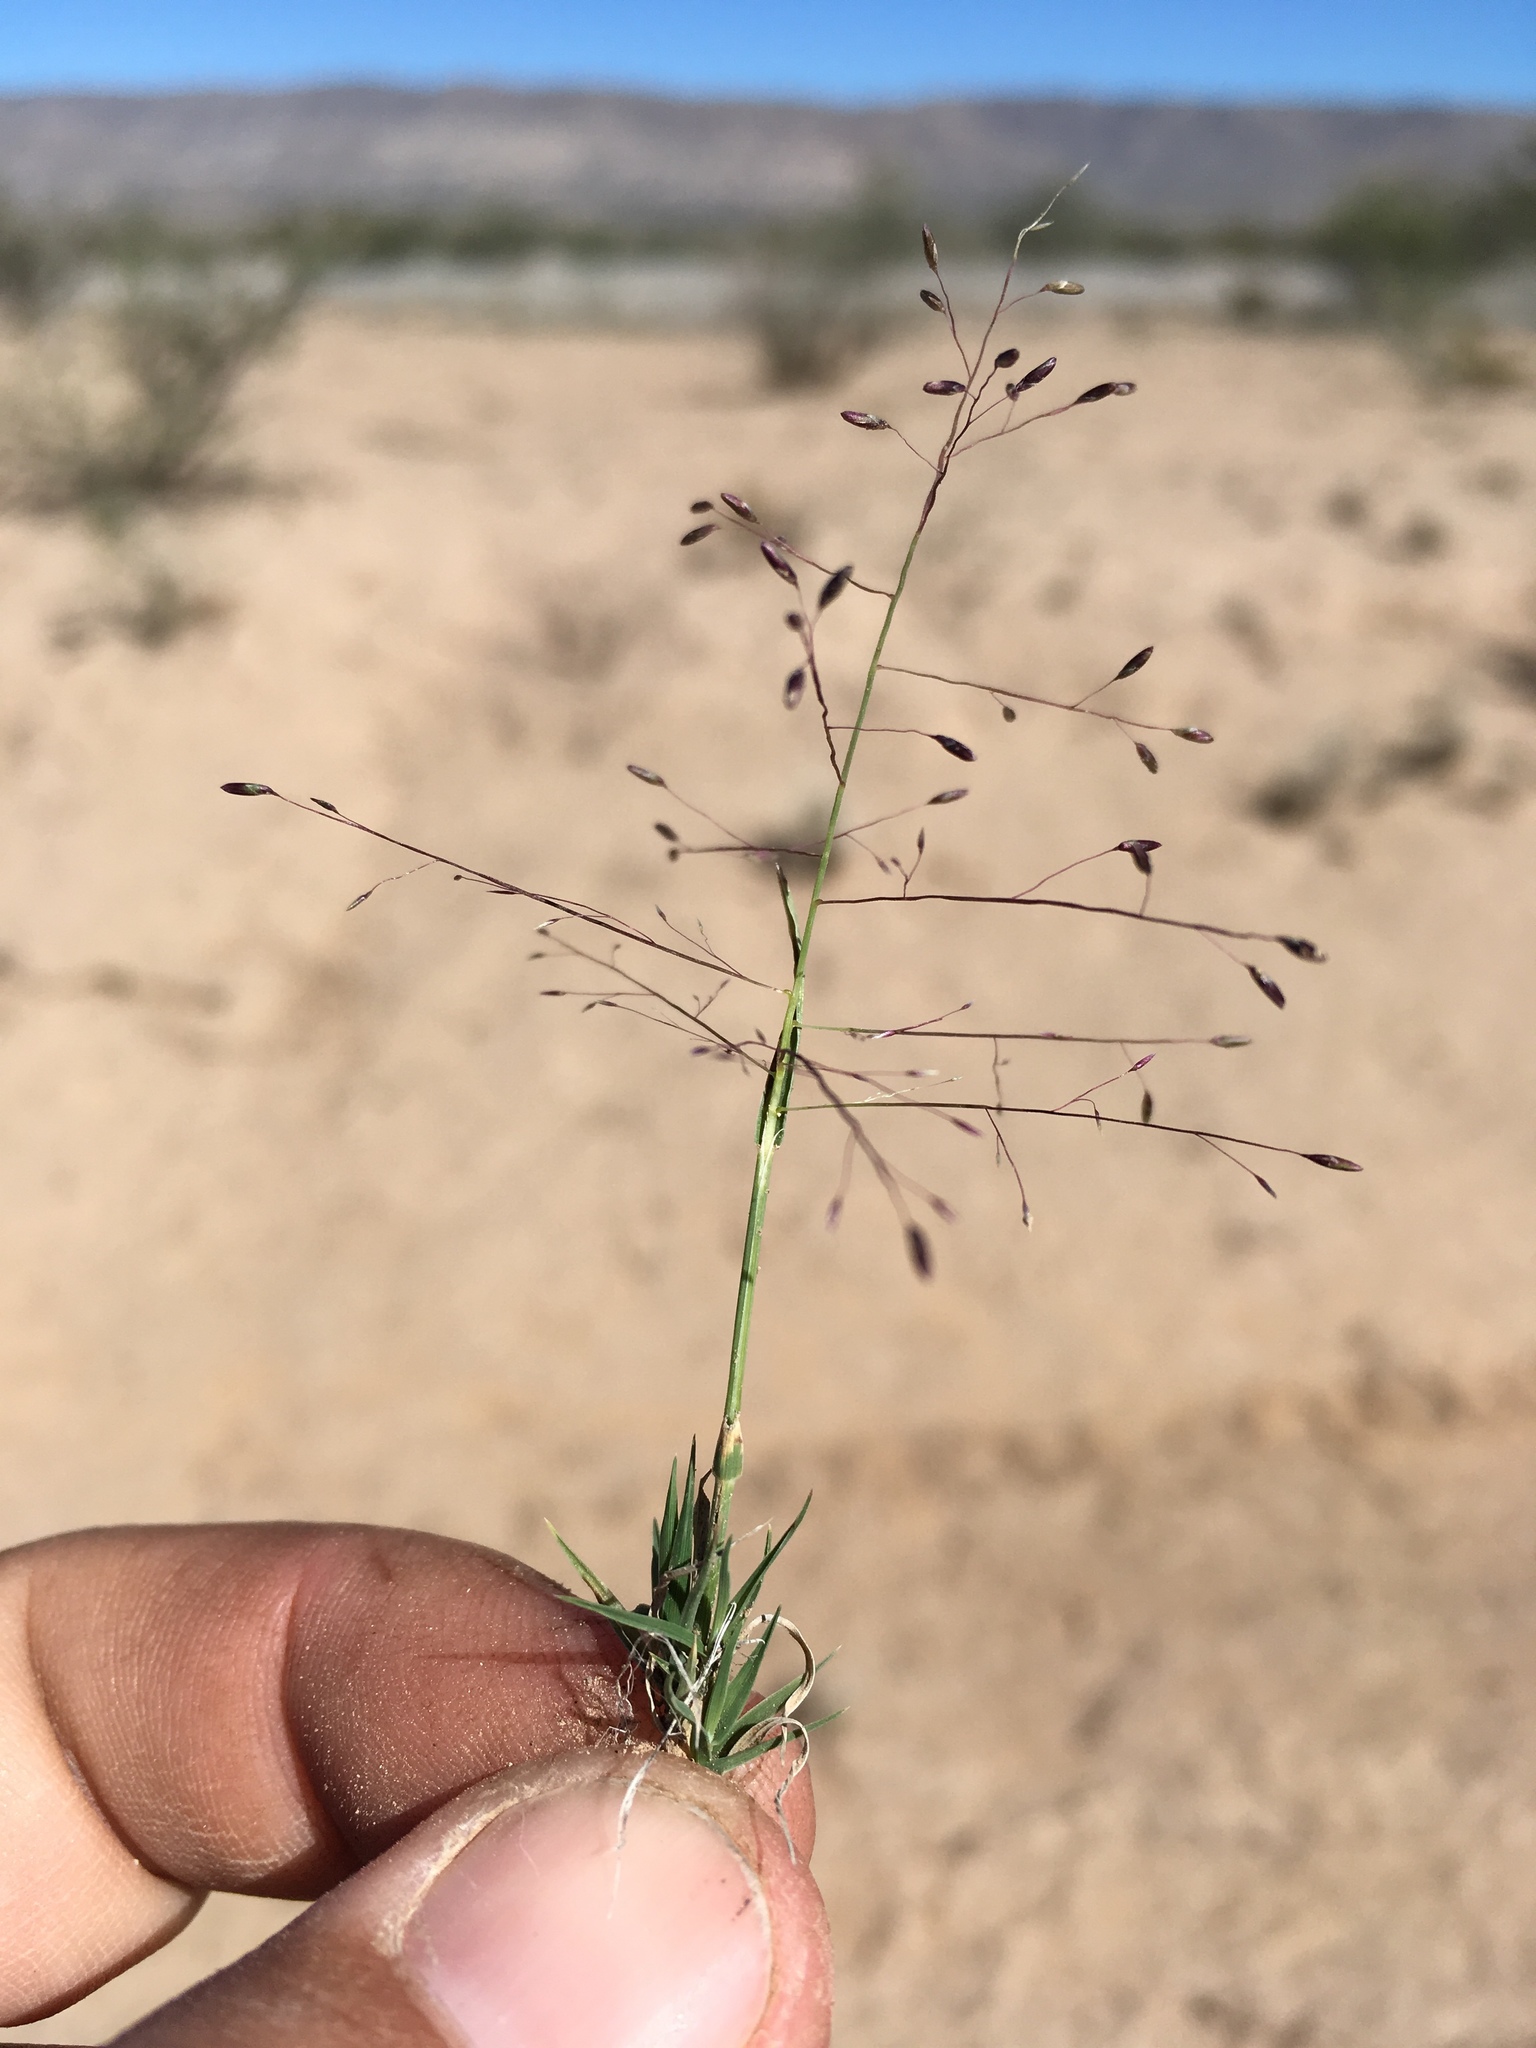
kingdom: Plantae
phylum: Tracheophyta
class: Liliopsida
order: Poales
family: Poaceae
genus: Muhlenbergia
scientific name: Muhlenbergia arenacea
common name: Ear muhly
